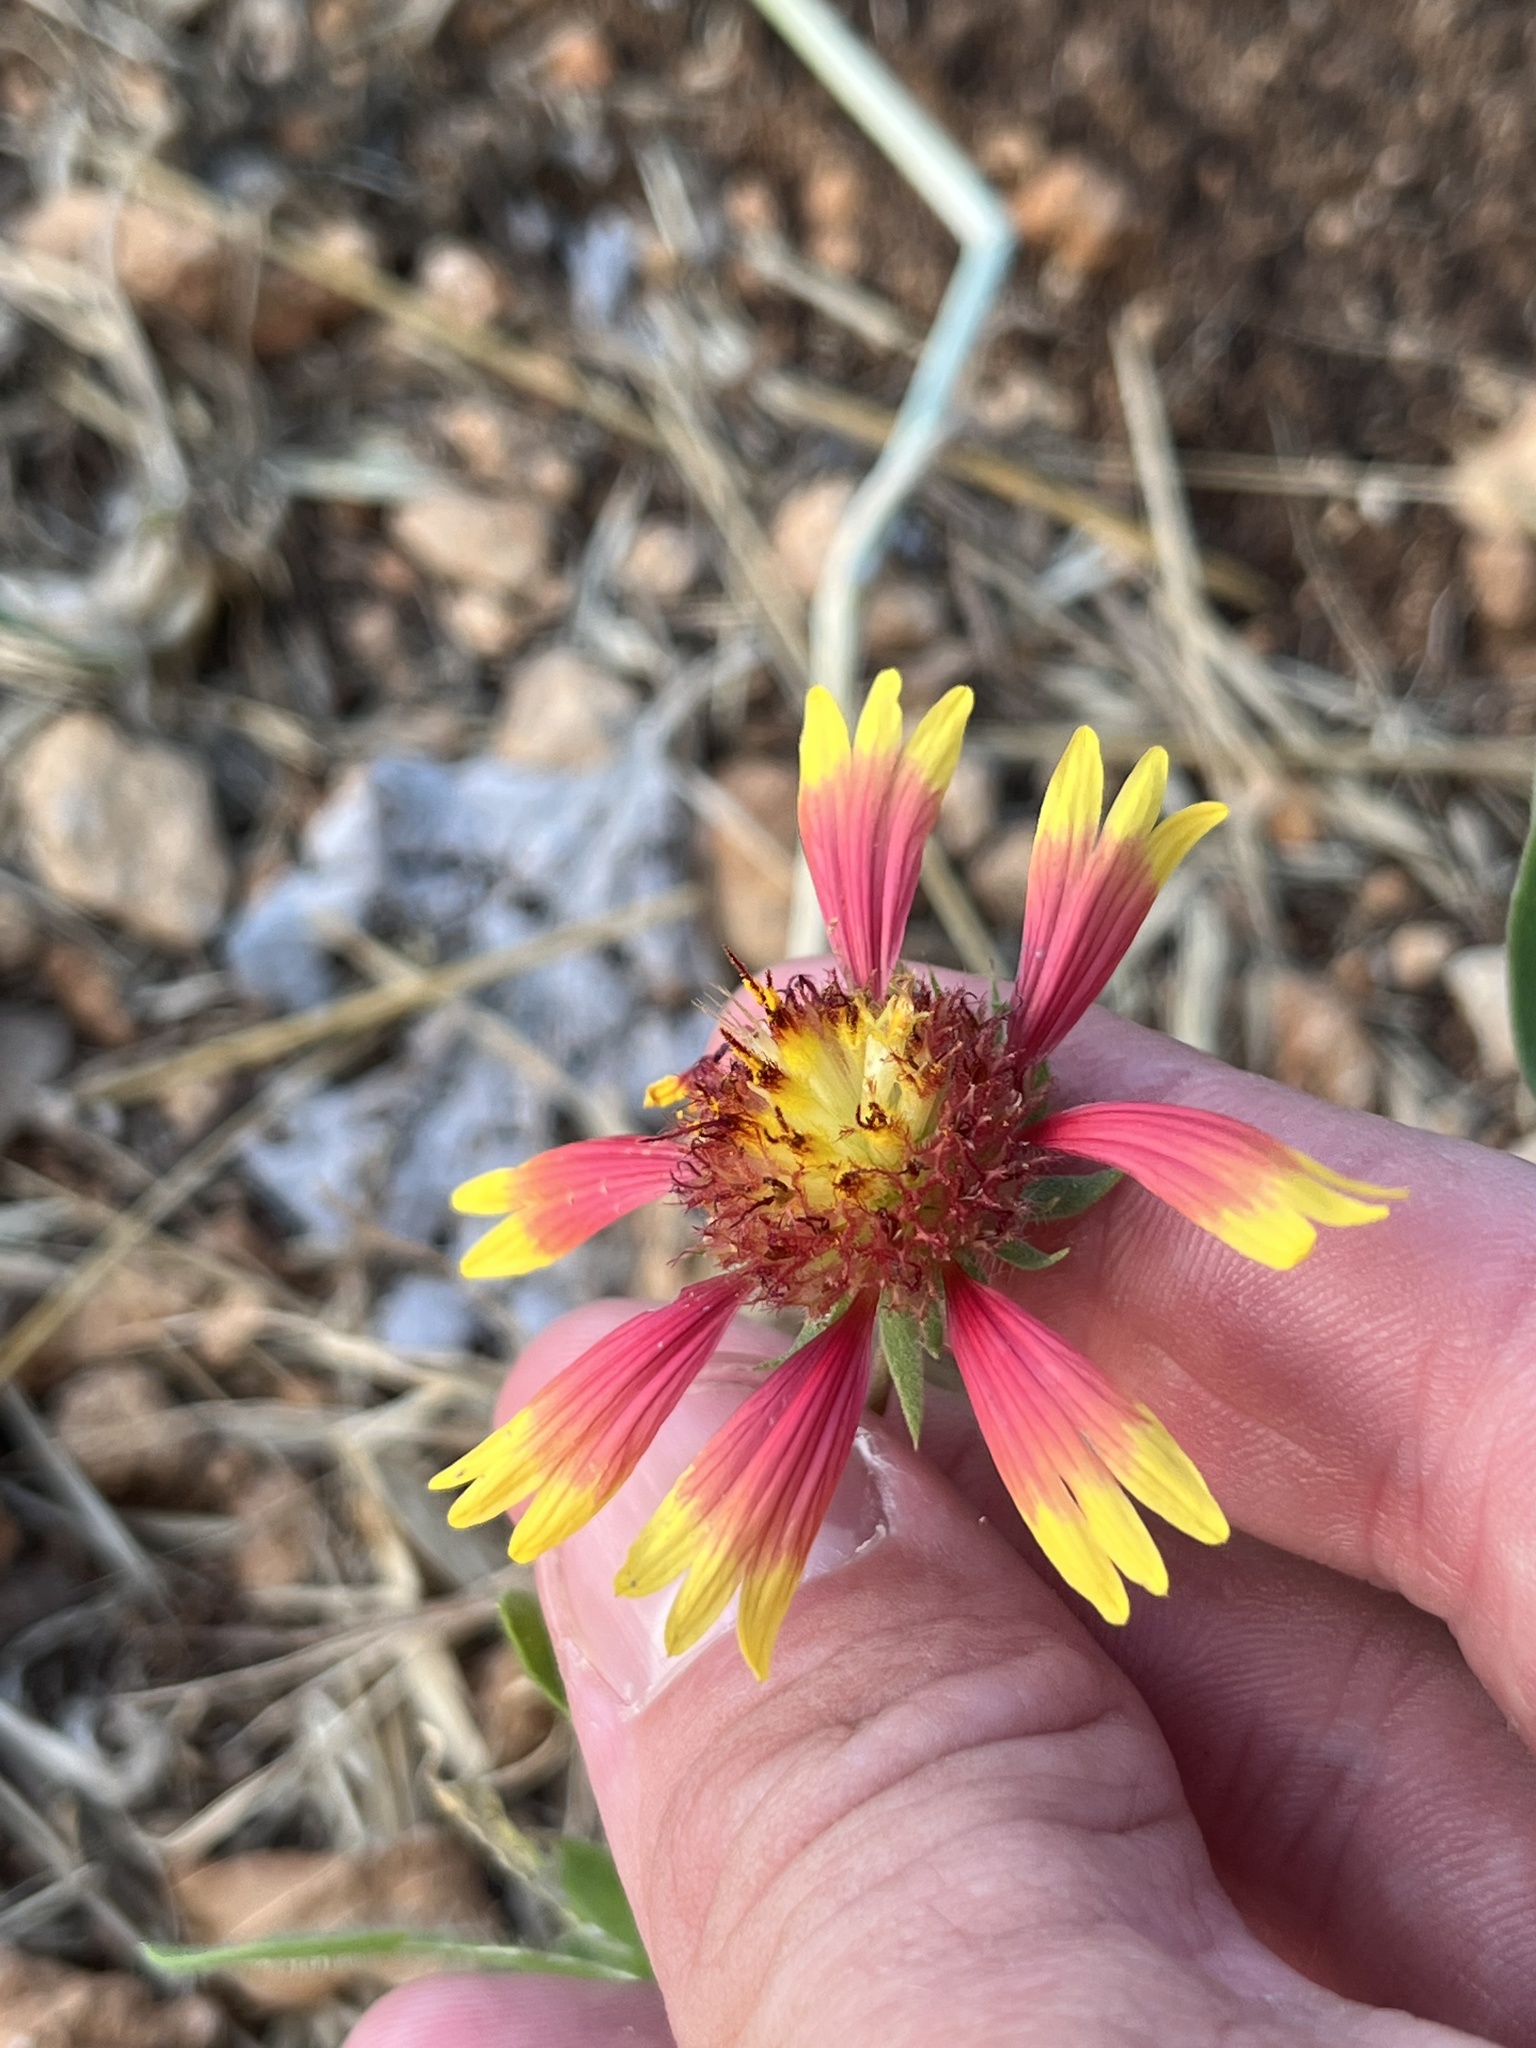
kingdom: Plantae
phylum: Tracheophyta
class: Magnoliopsida
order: Asterales
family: Asteraceae
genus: Gaillardia
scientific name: Gaillardia pulchella
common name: Firewheel
